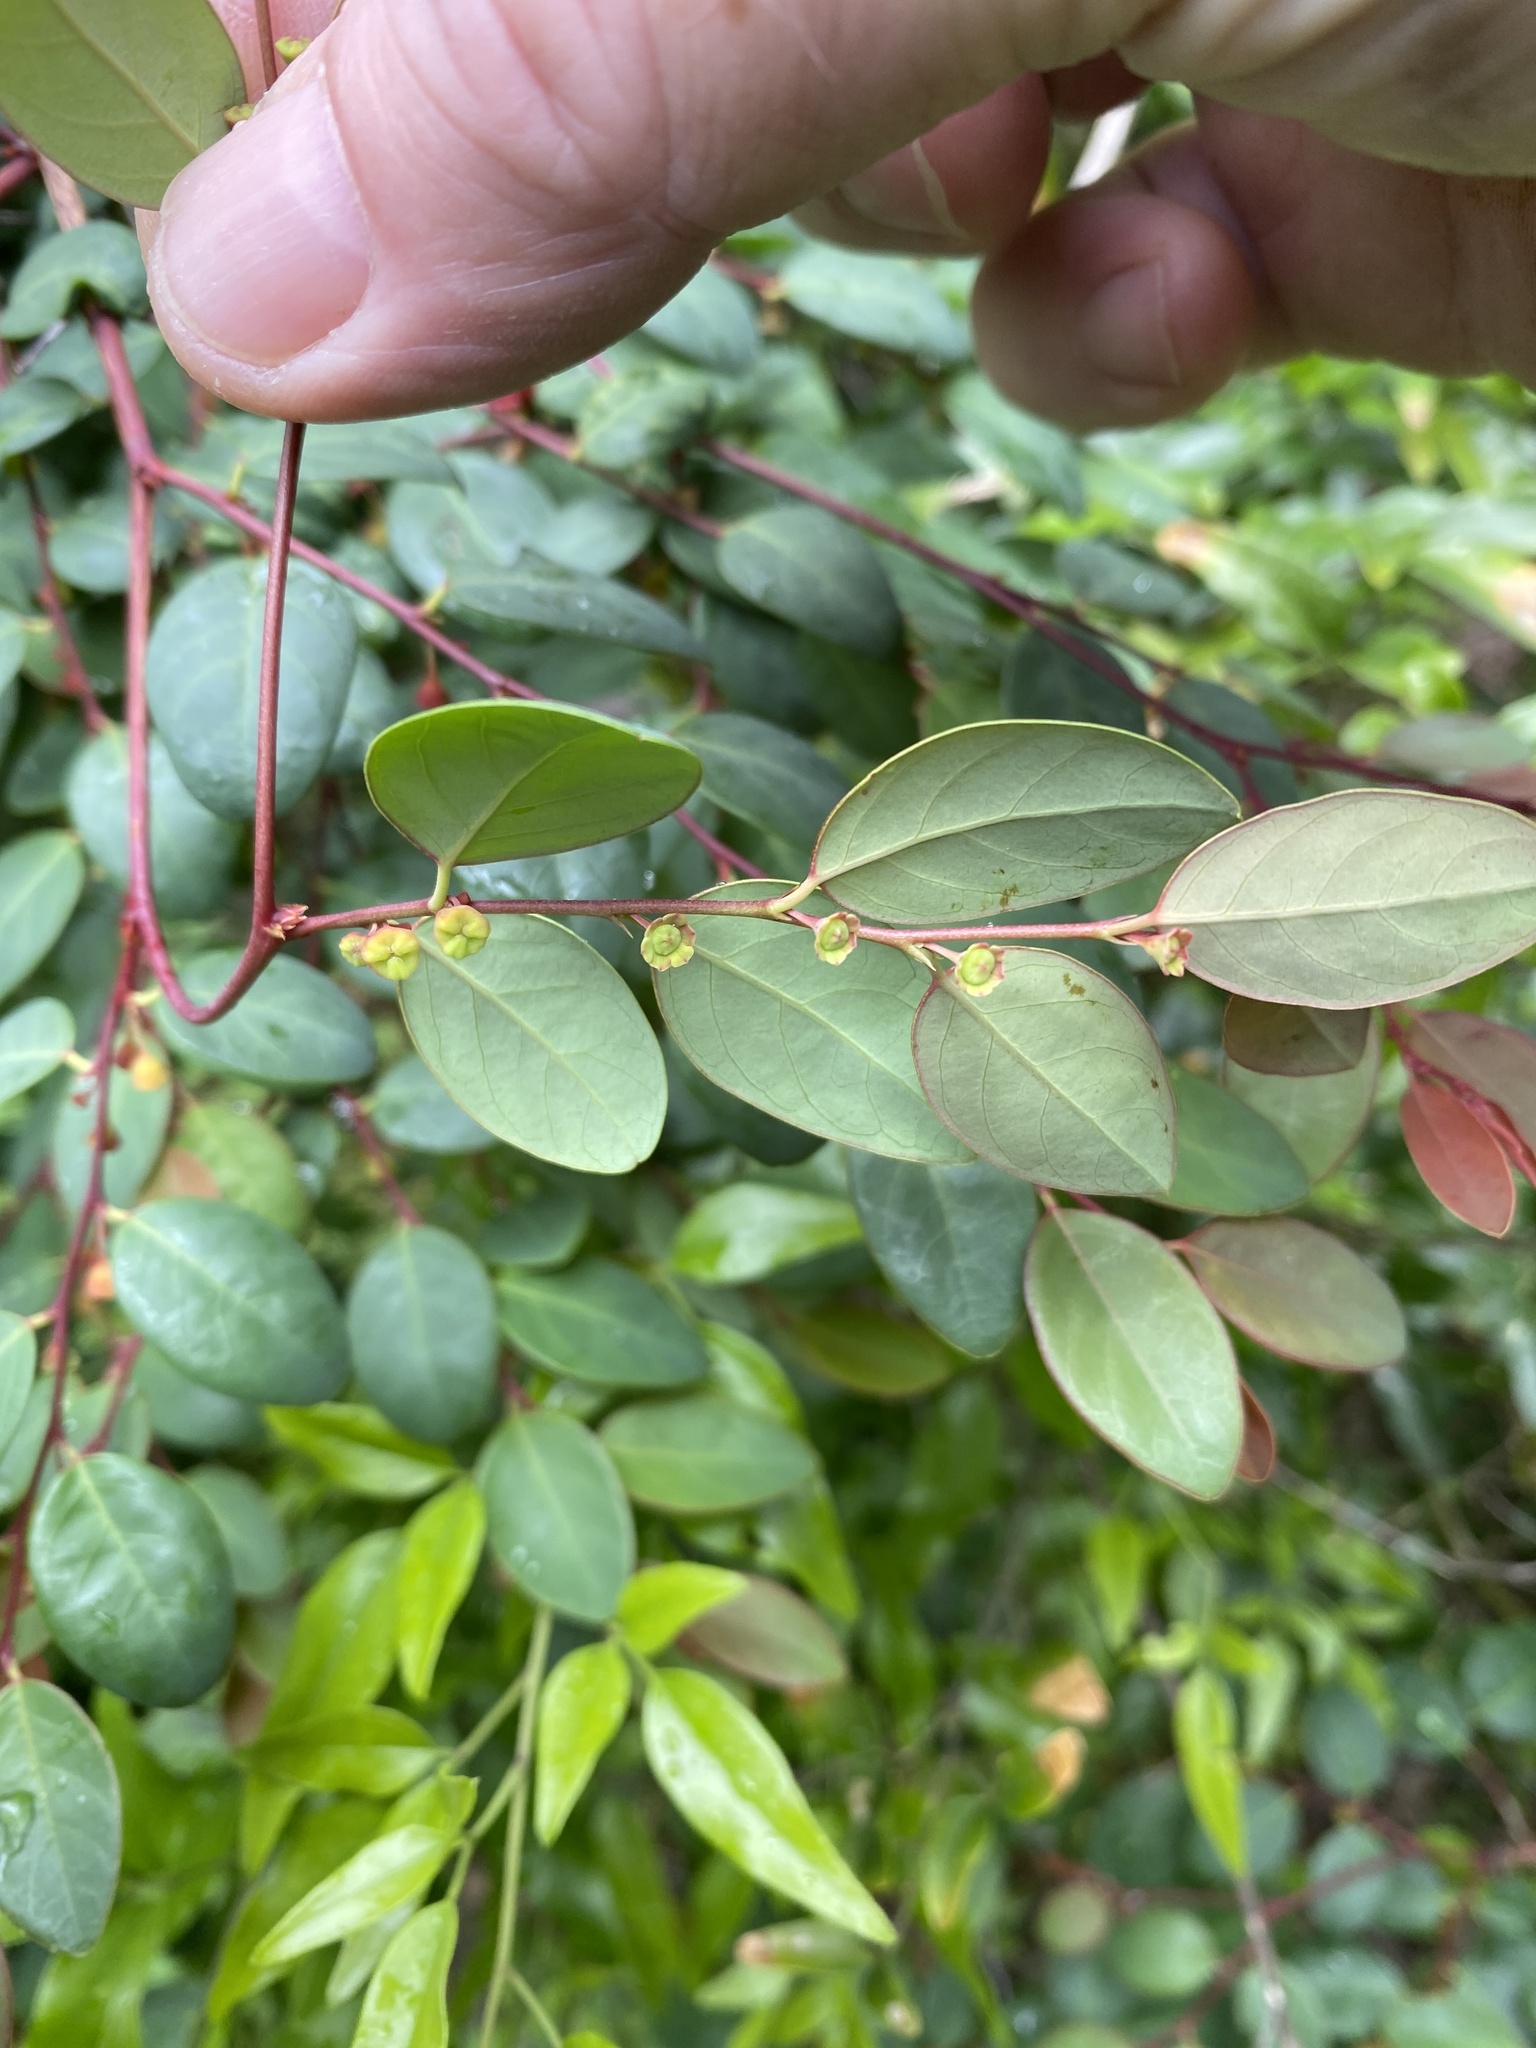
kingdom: Plantae
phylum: Tracheophyta
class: Magnoliopsida
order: Malpighiales
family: Phyllanthaceae
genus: Breynia
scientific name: Breynia oblongifolia
